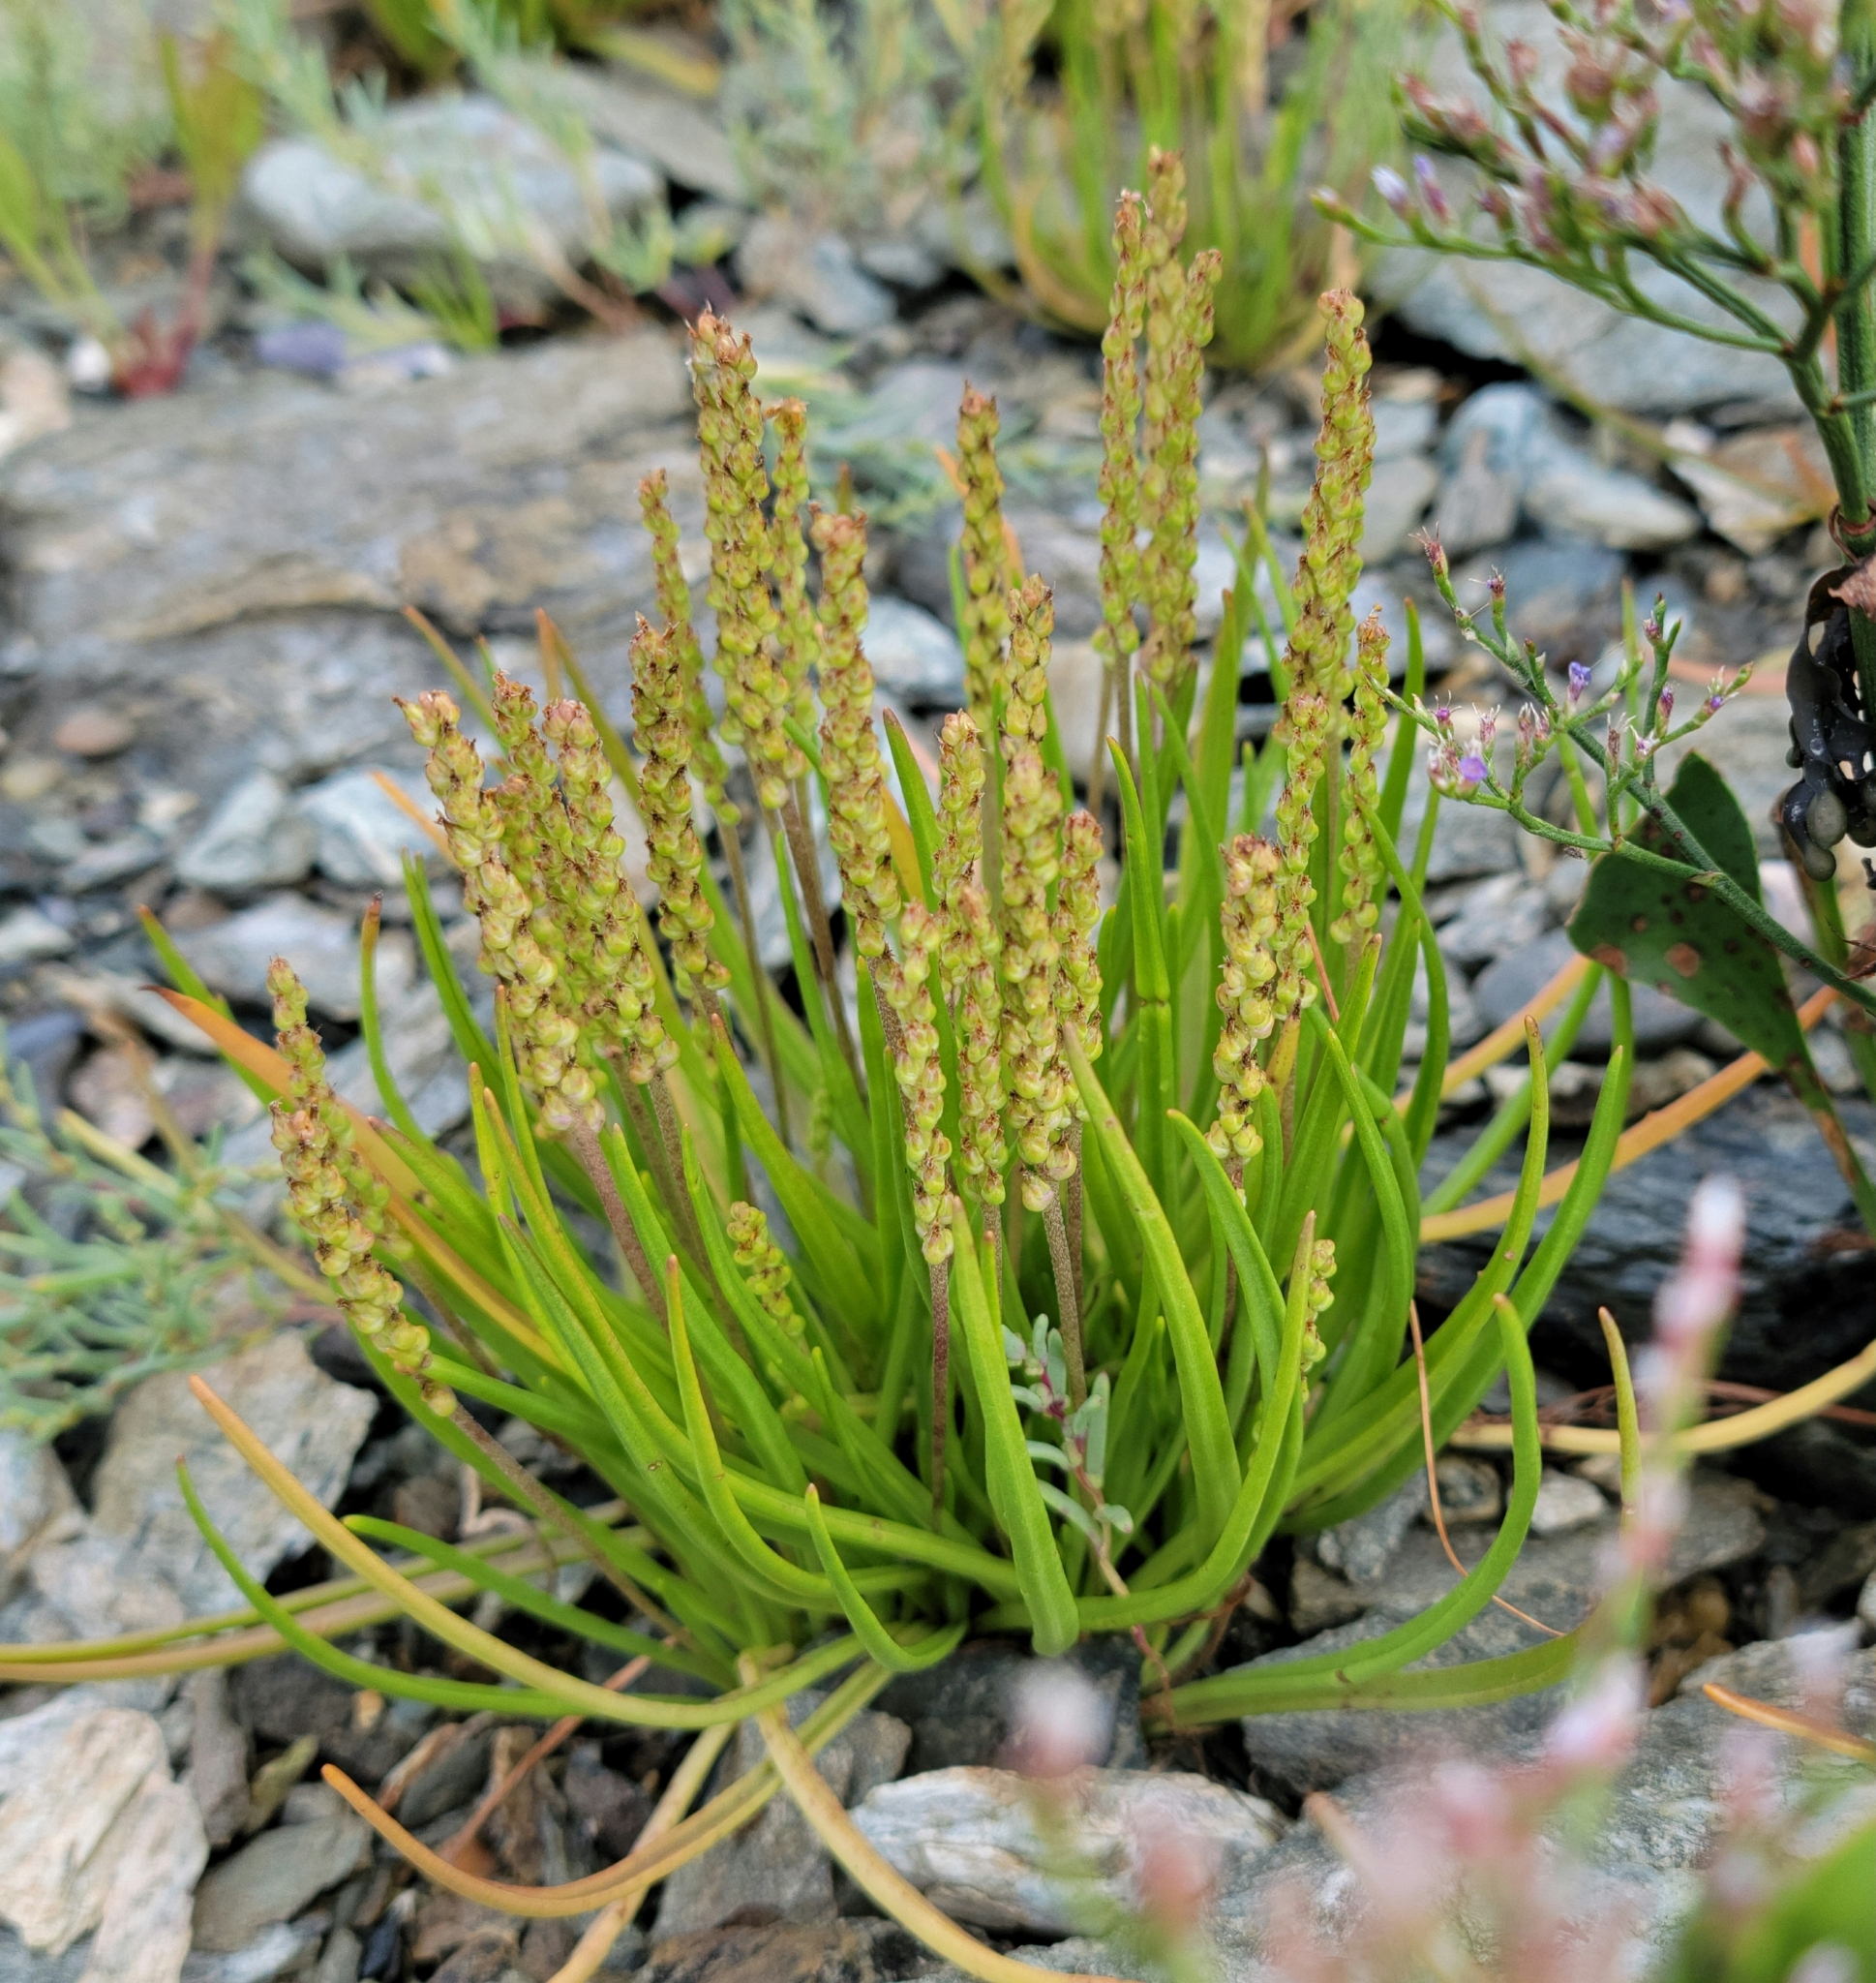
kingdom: Plantae
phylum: Tracheophyta
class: Magnoliopsida
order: Lamiales
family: Plantaginaceae
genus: Plantago
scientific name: Plantago maritima
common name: Sea plantain
